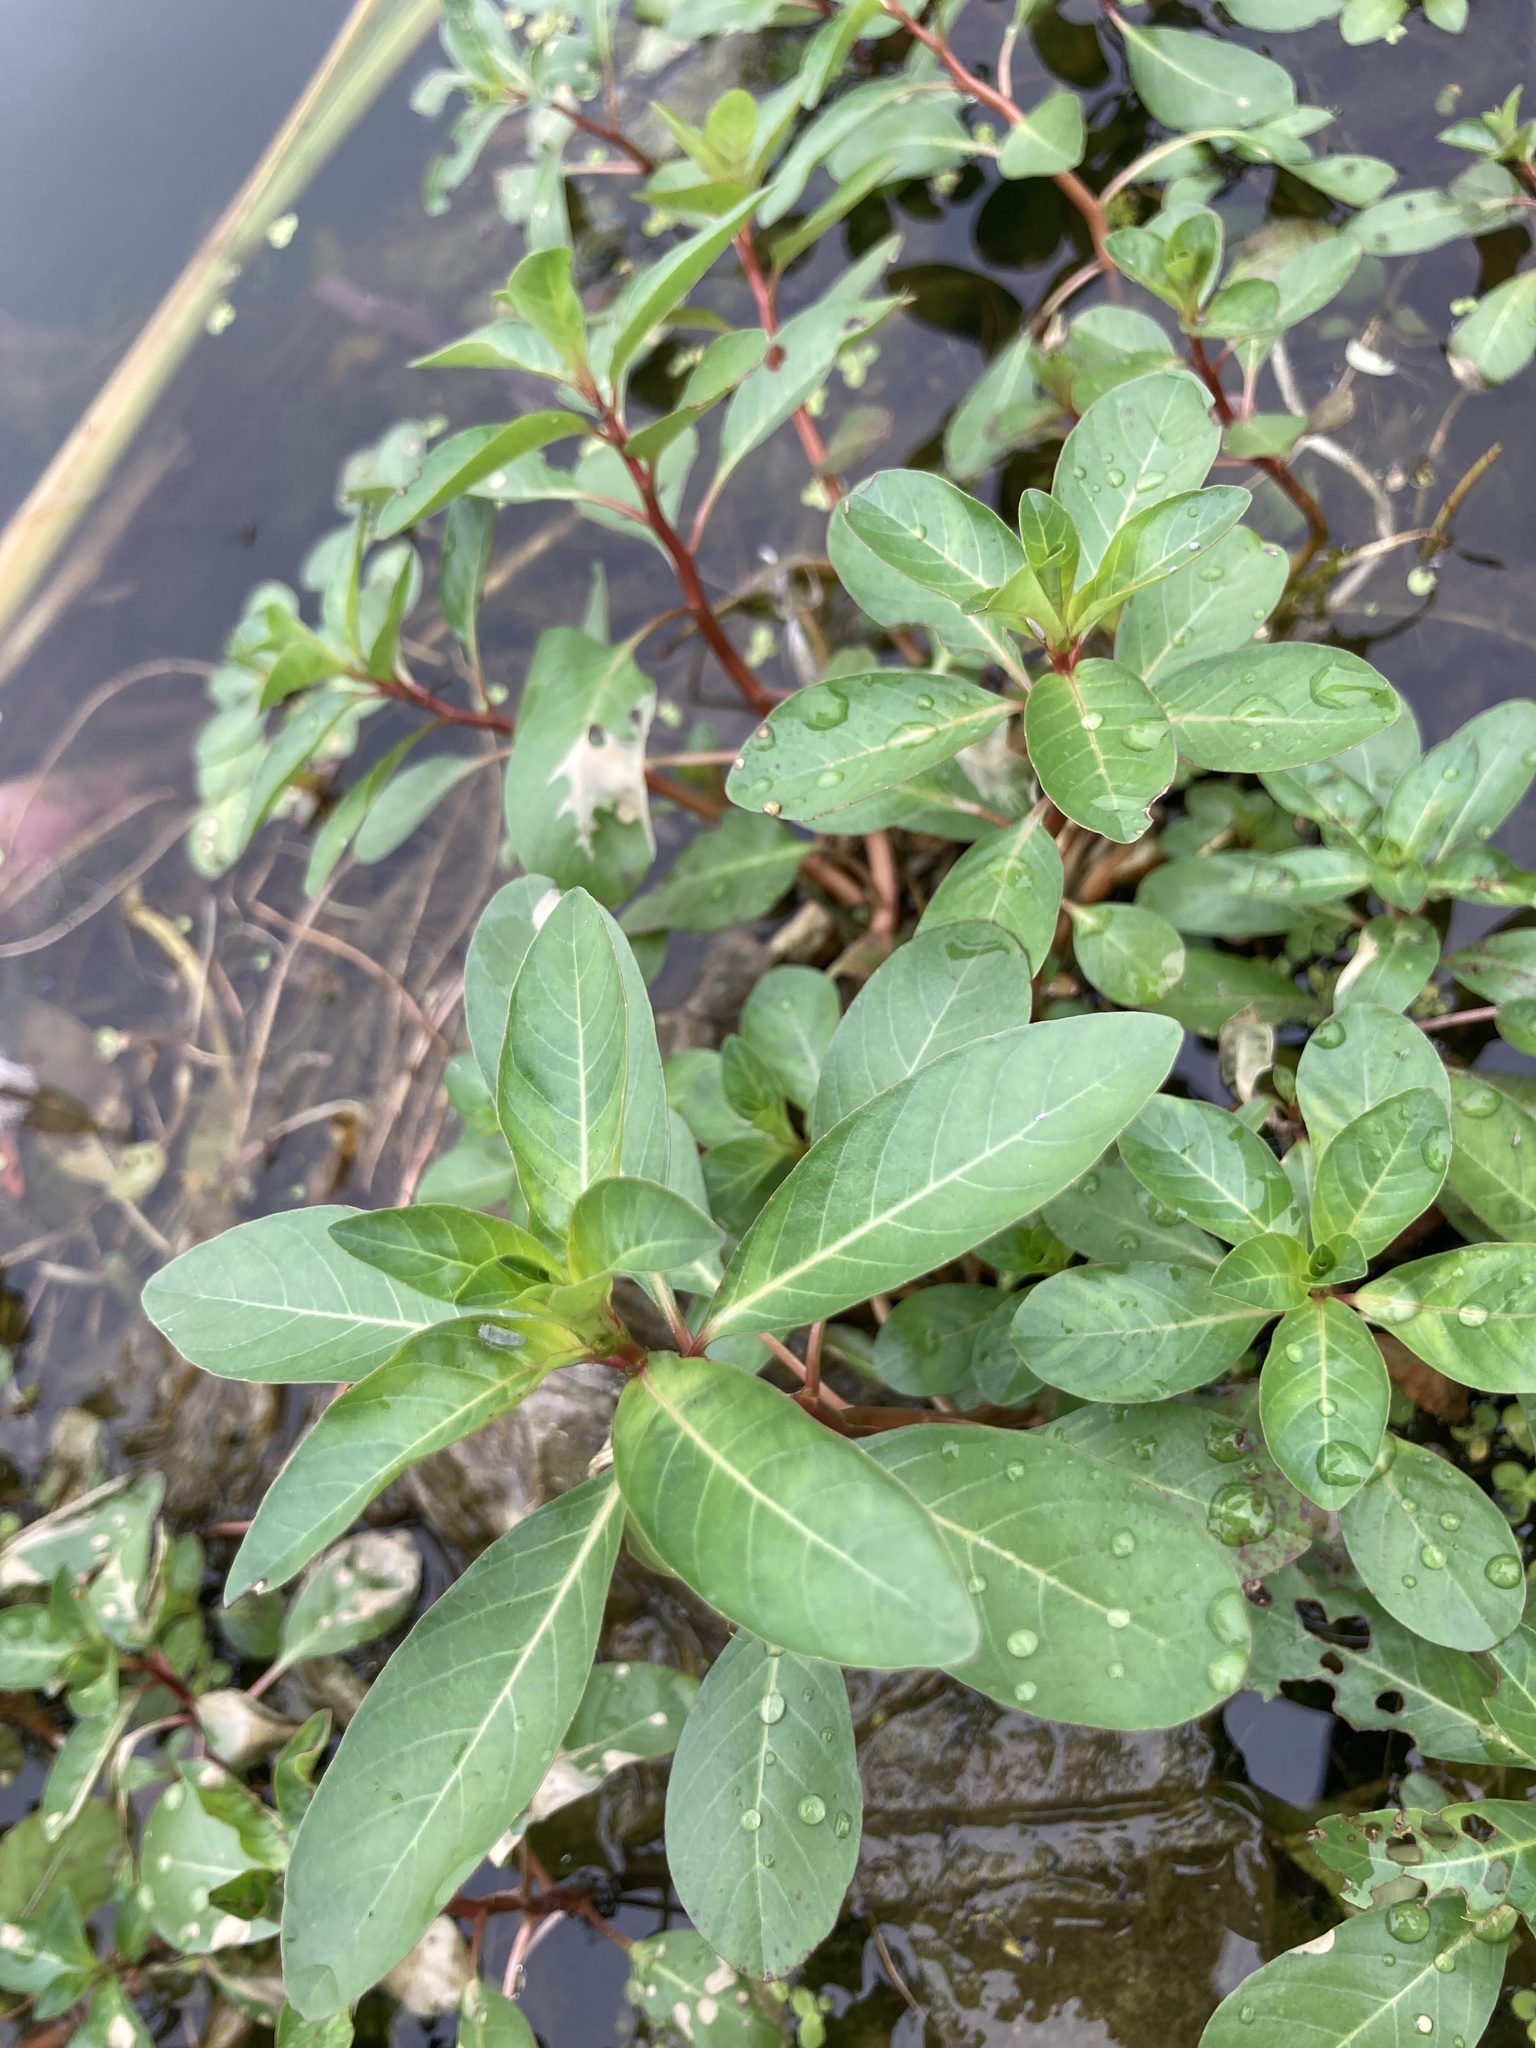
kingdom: Plantae
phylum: Tracheophyta
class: Magnoliopsida
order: Myrtales
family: Onagraceae
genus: Ludwigia
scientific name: Ludwigia peploides
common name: Floating primrose-willow
